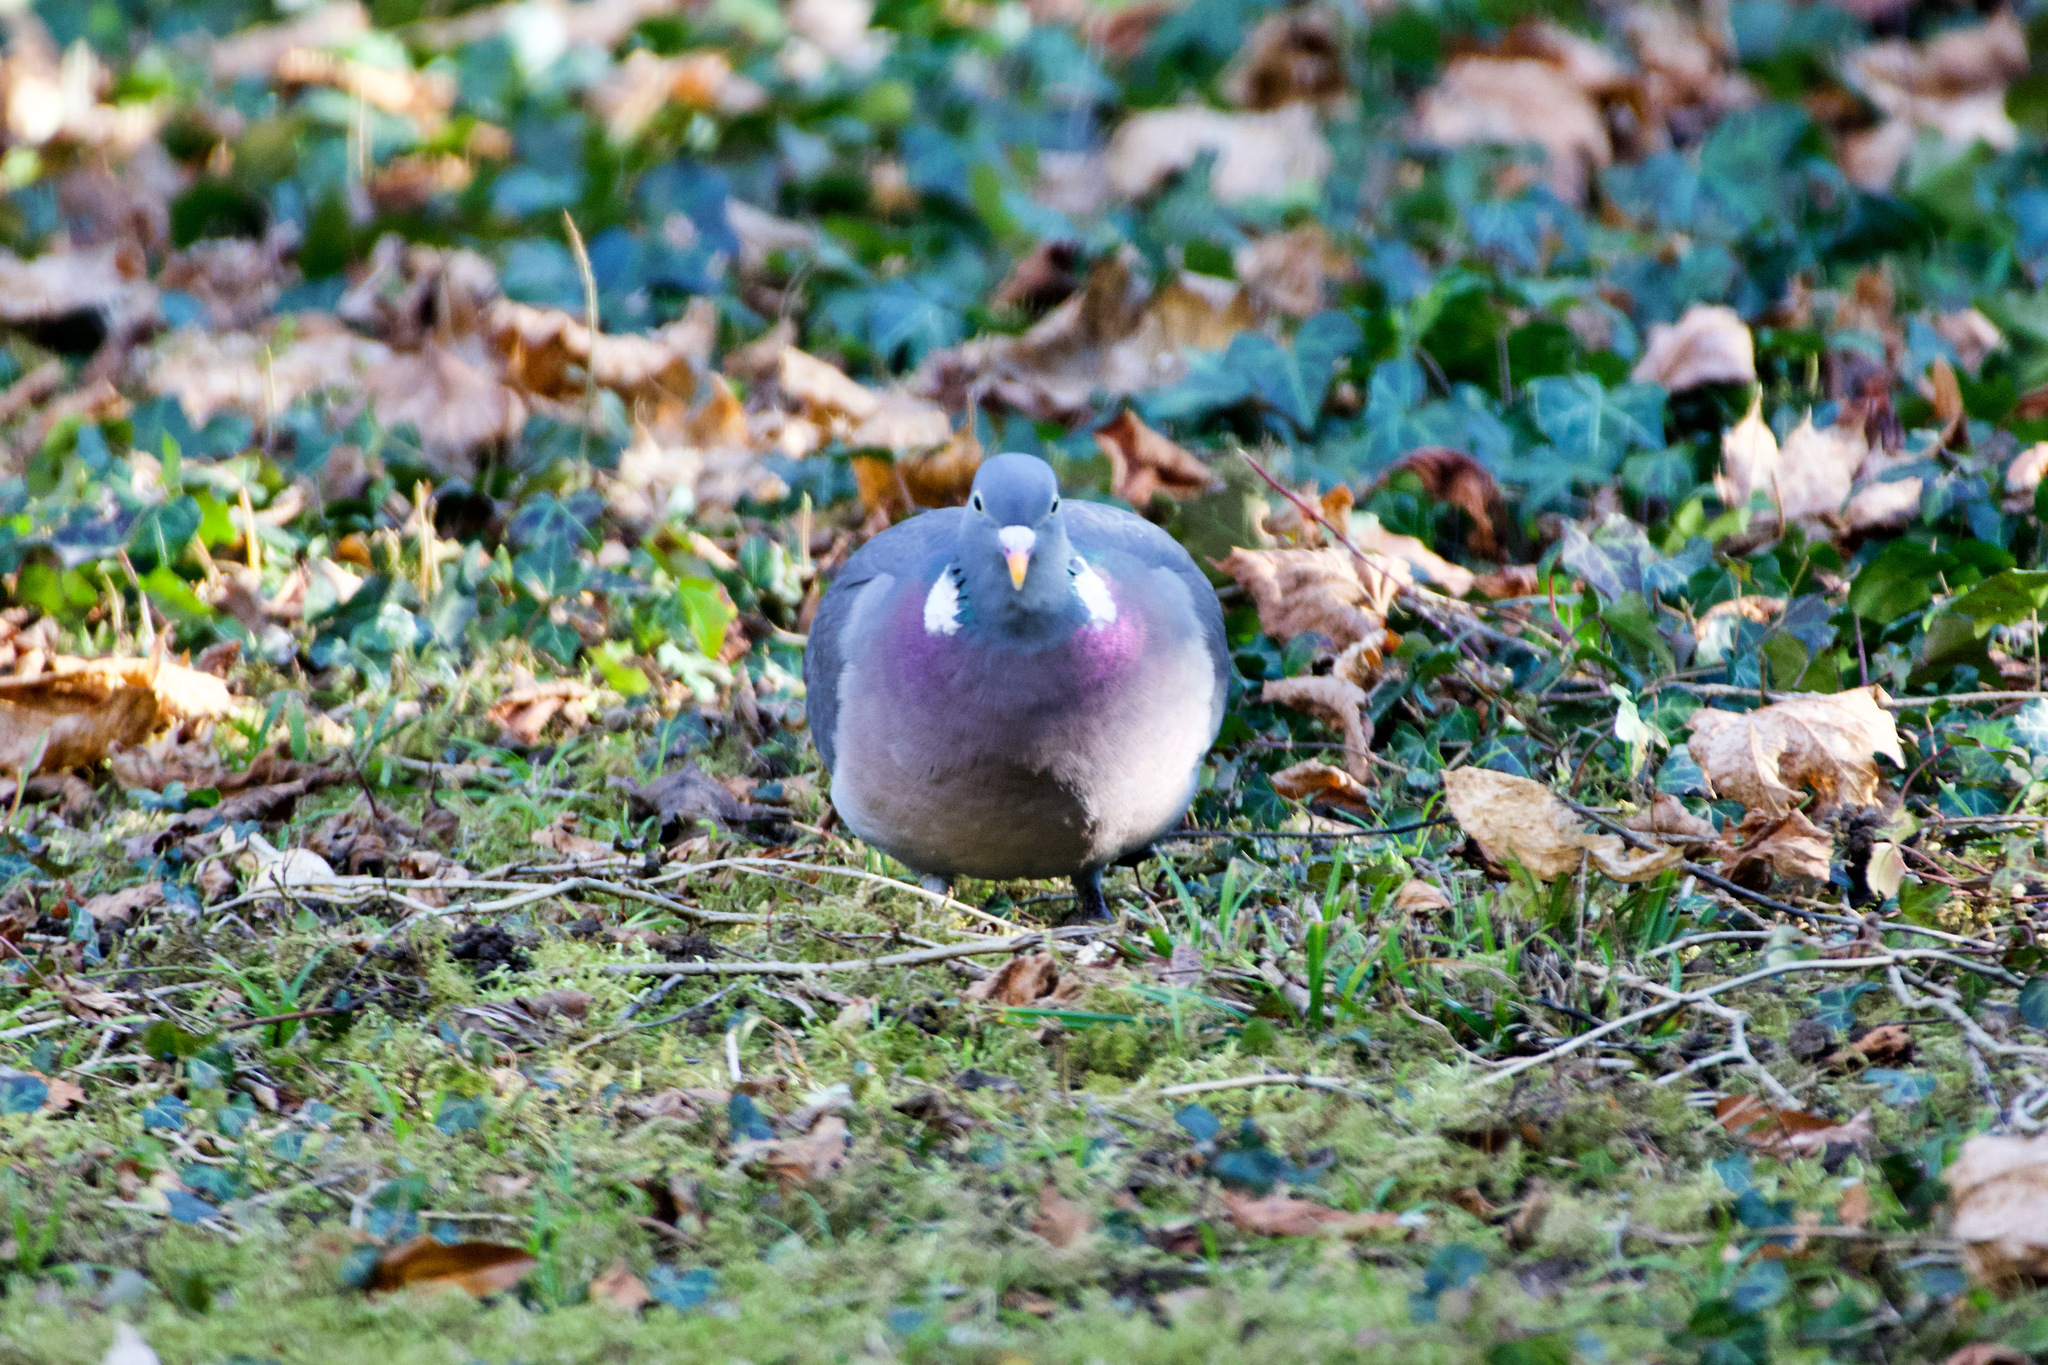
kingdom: Animalia
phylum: Chordata
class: Aves
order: Columbiformes
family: Columbidae
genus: Columba
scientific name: Columba palumbus
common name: Common wood pigeon
